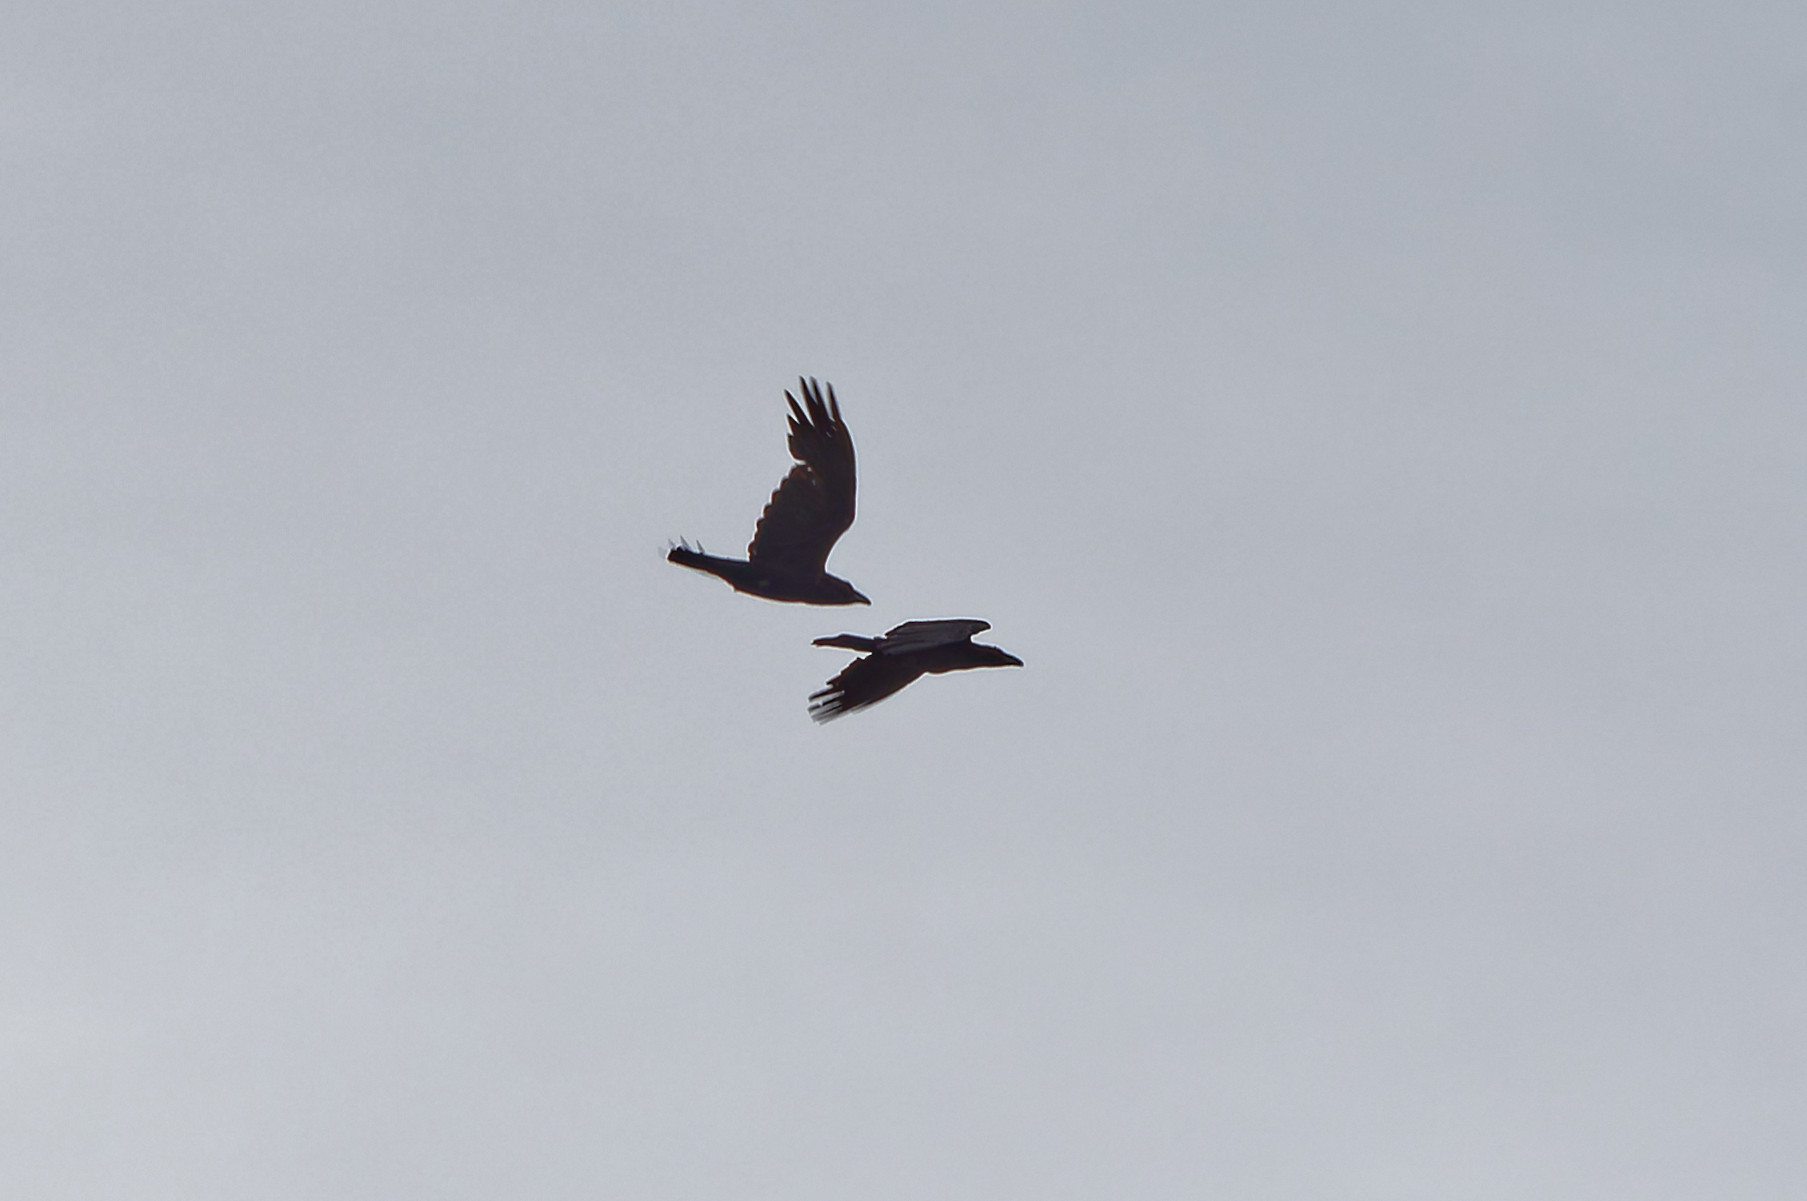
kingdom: Animalia
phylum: Chordata
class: Aves
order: Passeriformes
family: Corvidae
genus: Corvus
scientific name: Corvus corax
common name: Common raven
